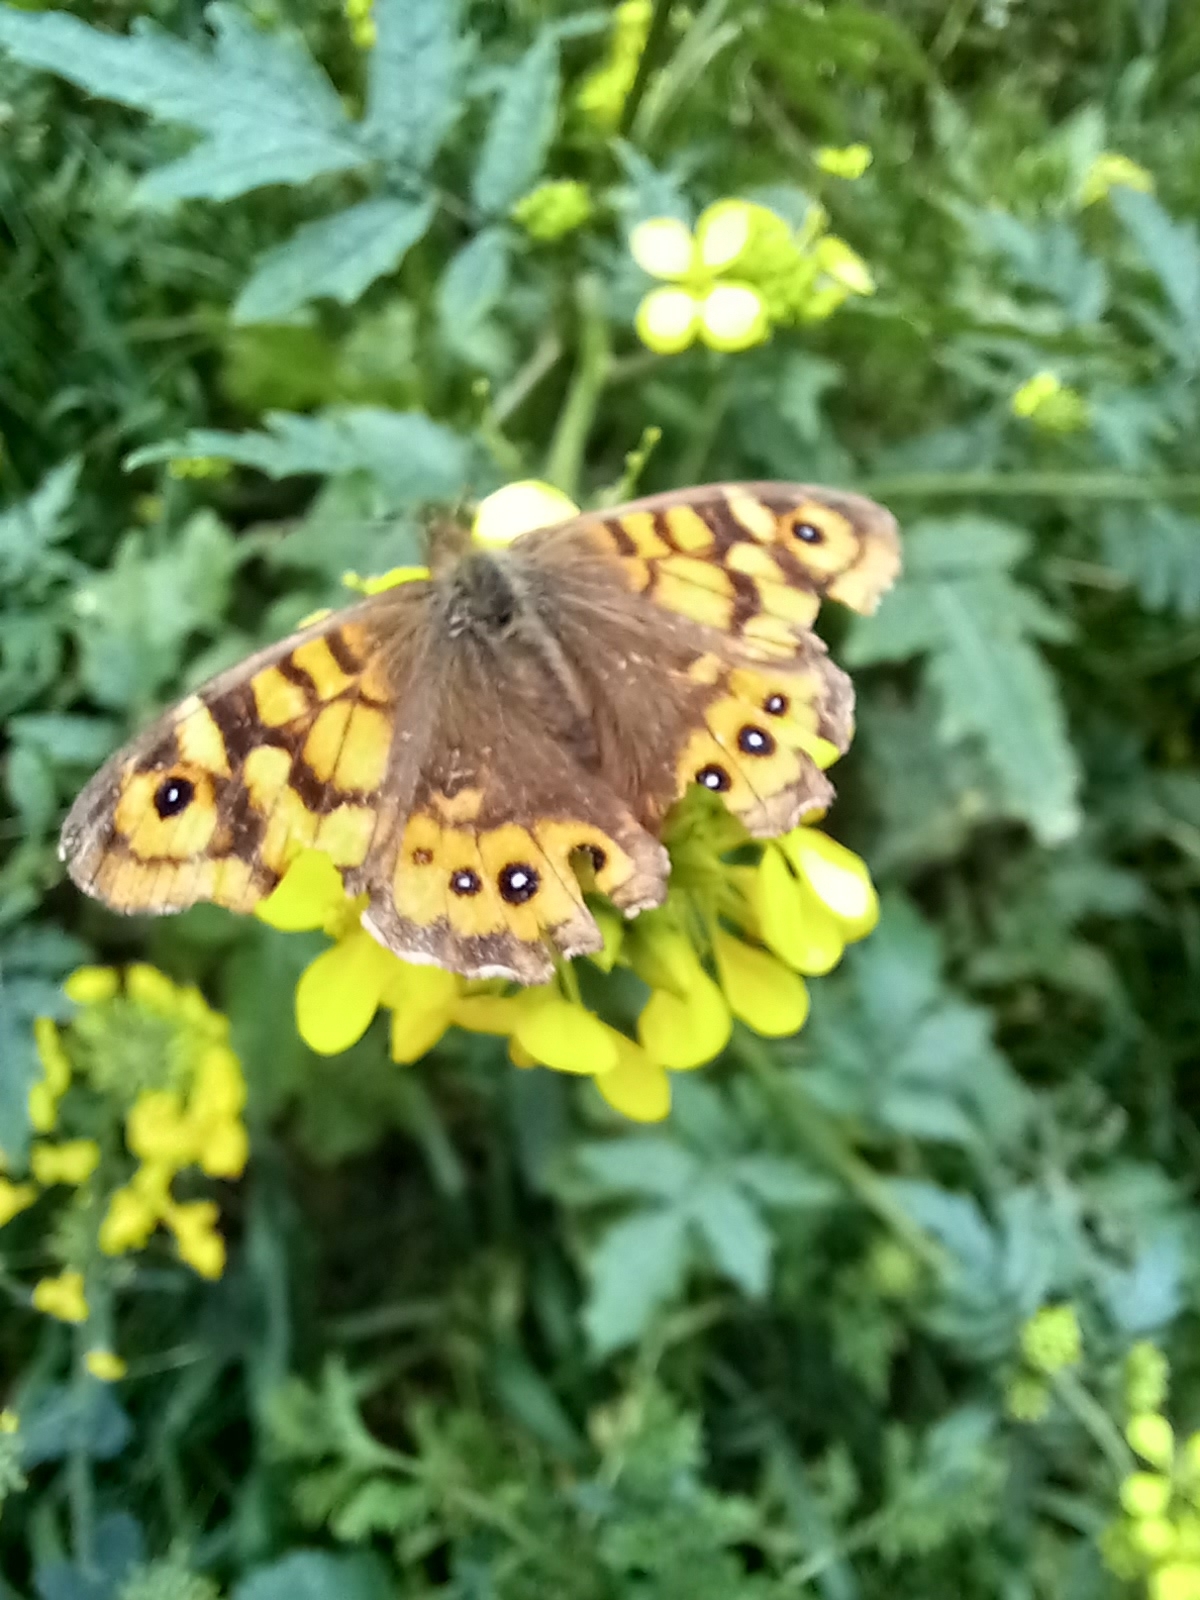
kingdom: Animalia
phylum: Arthropoda
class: Insecta
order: Lepidoptera
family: Nymphalidae
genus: Pararge
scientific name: Pararge aegeria
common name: Speckled wood
